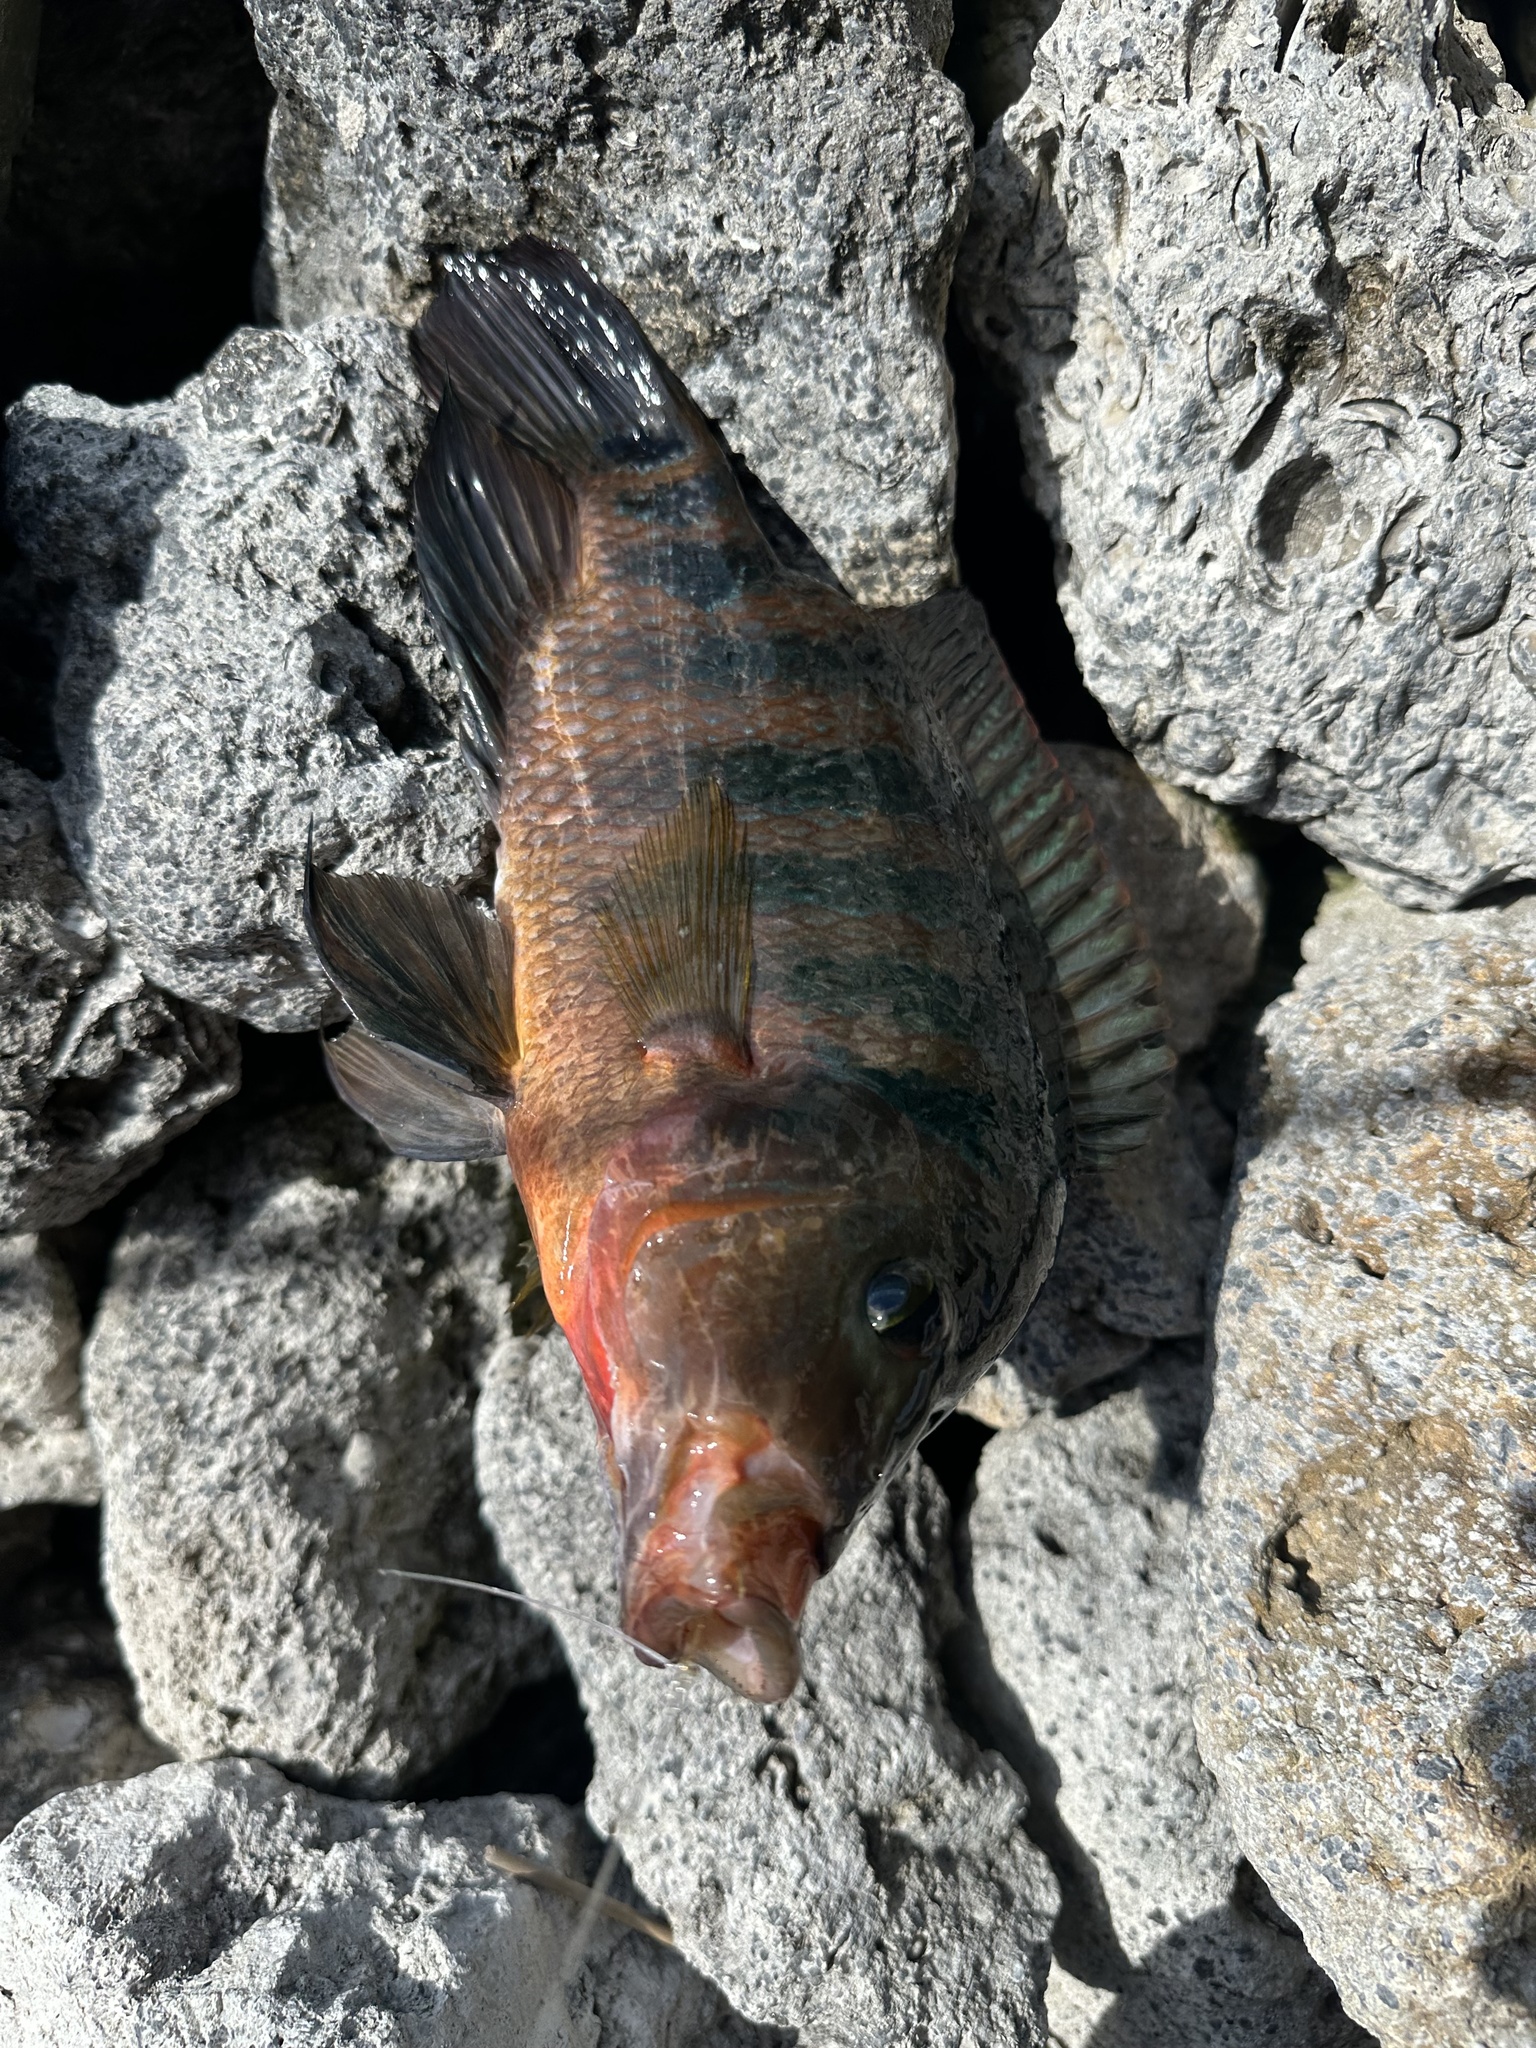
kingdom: Animalia
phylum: Chordata
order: Perciformes
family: Cichlidae
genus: Mayaheros
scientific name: Mayaheros urophthalmus
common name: Mayan cichlid
